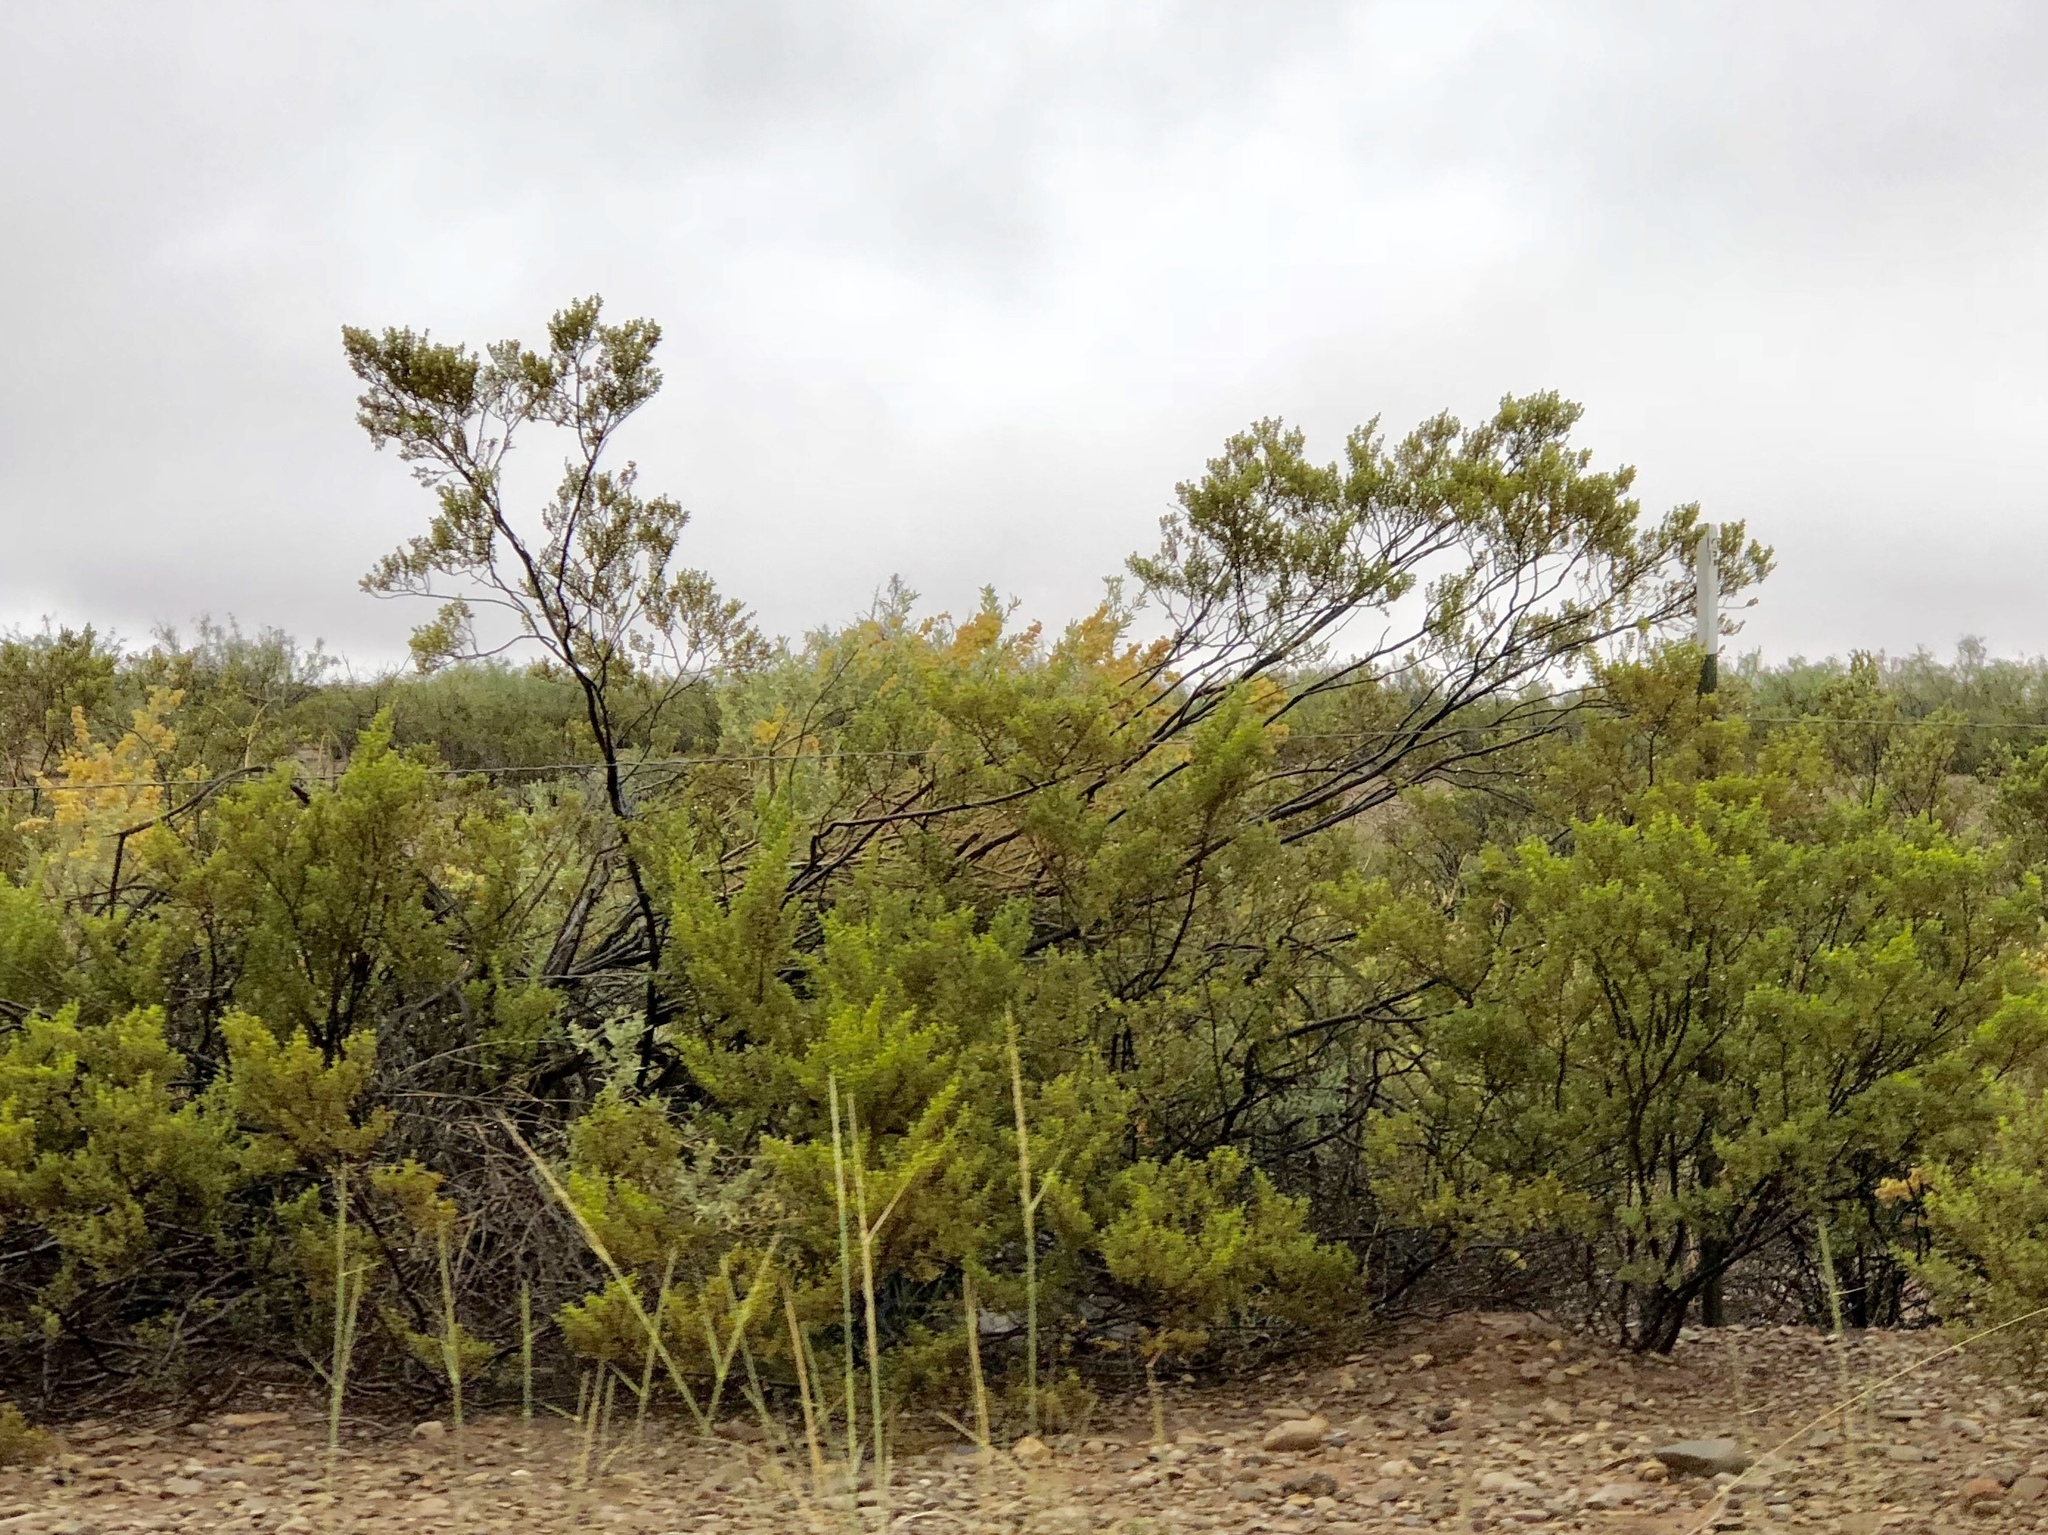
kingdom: Plantae
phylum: Tracheophyta
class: Magnoliopsida
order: Zygophyllales
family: Zygophyllaceae
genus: Larrea
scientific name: Larrea tridentata
